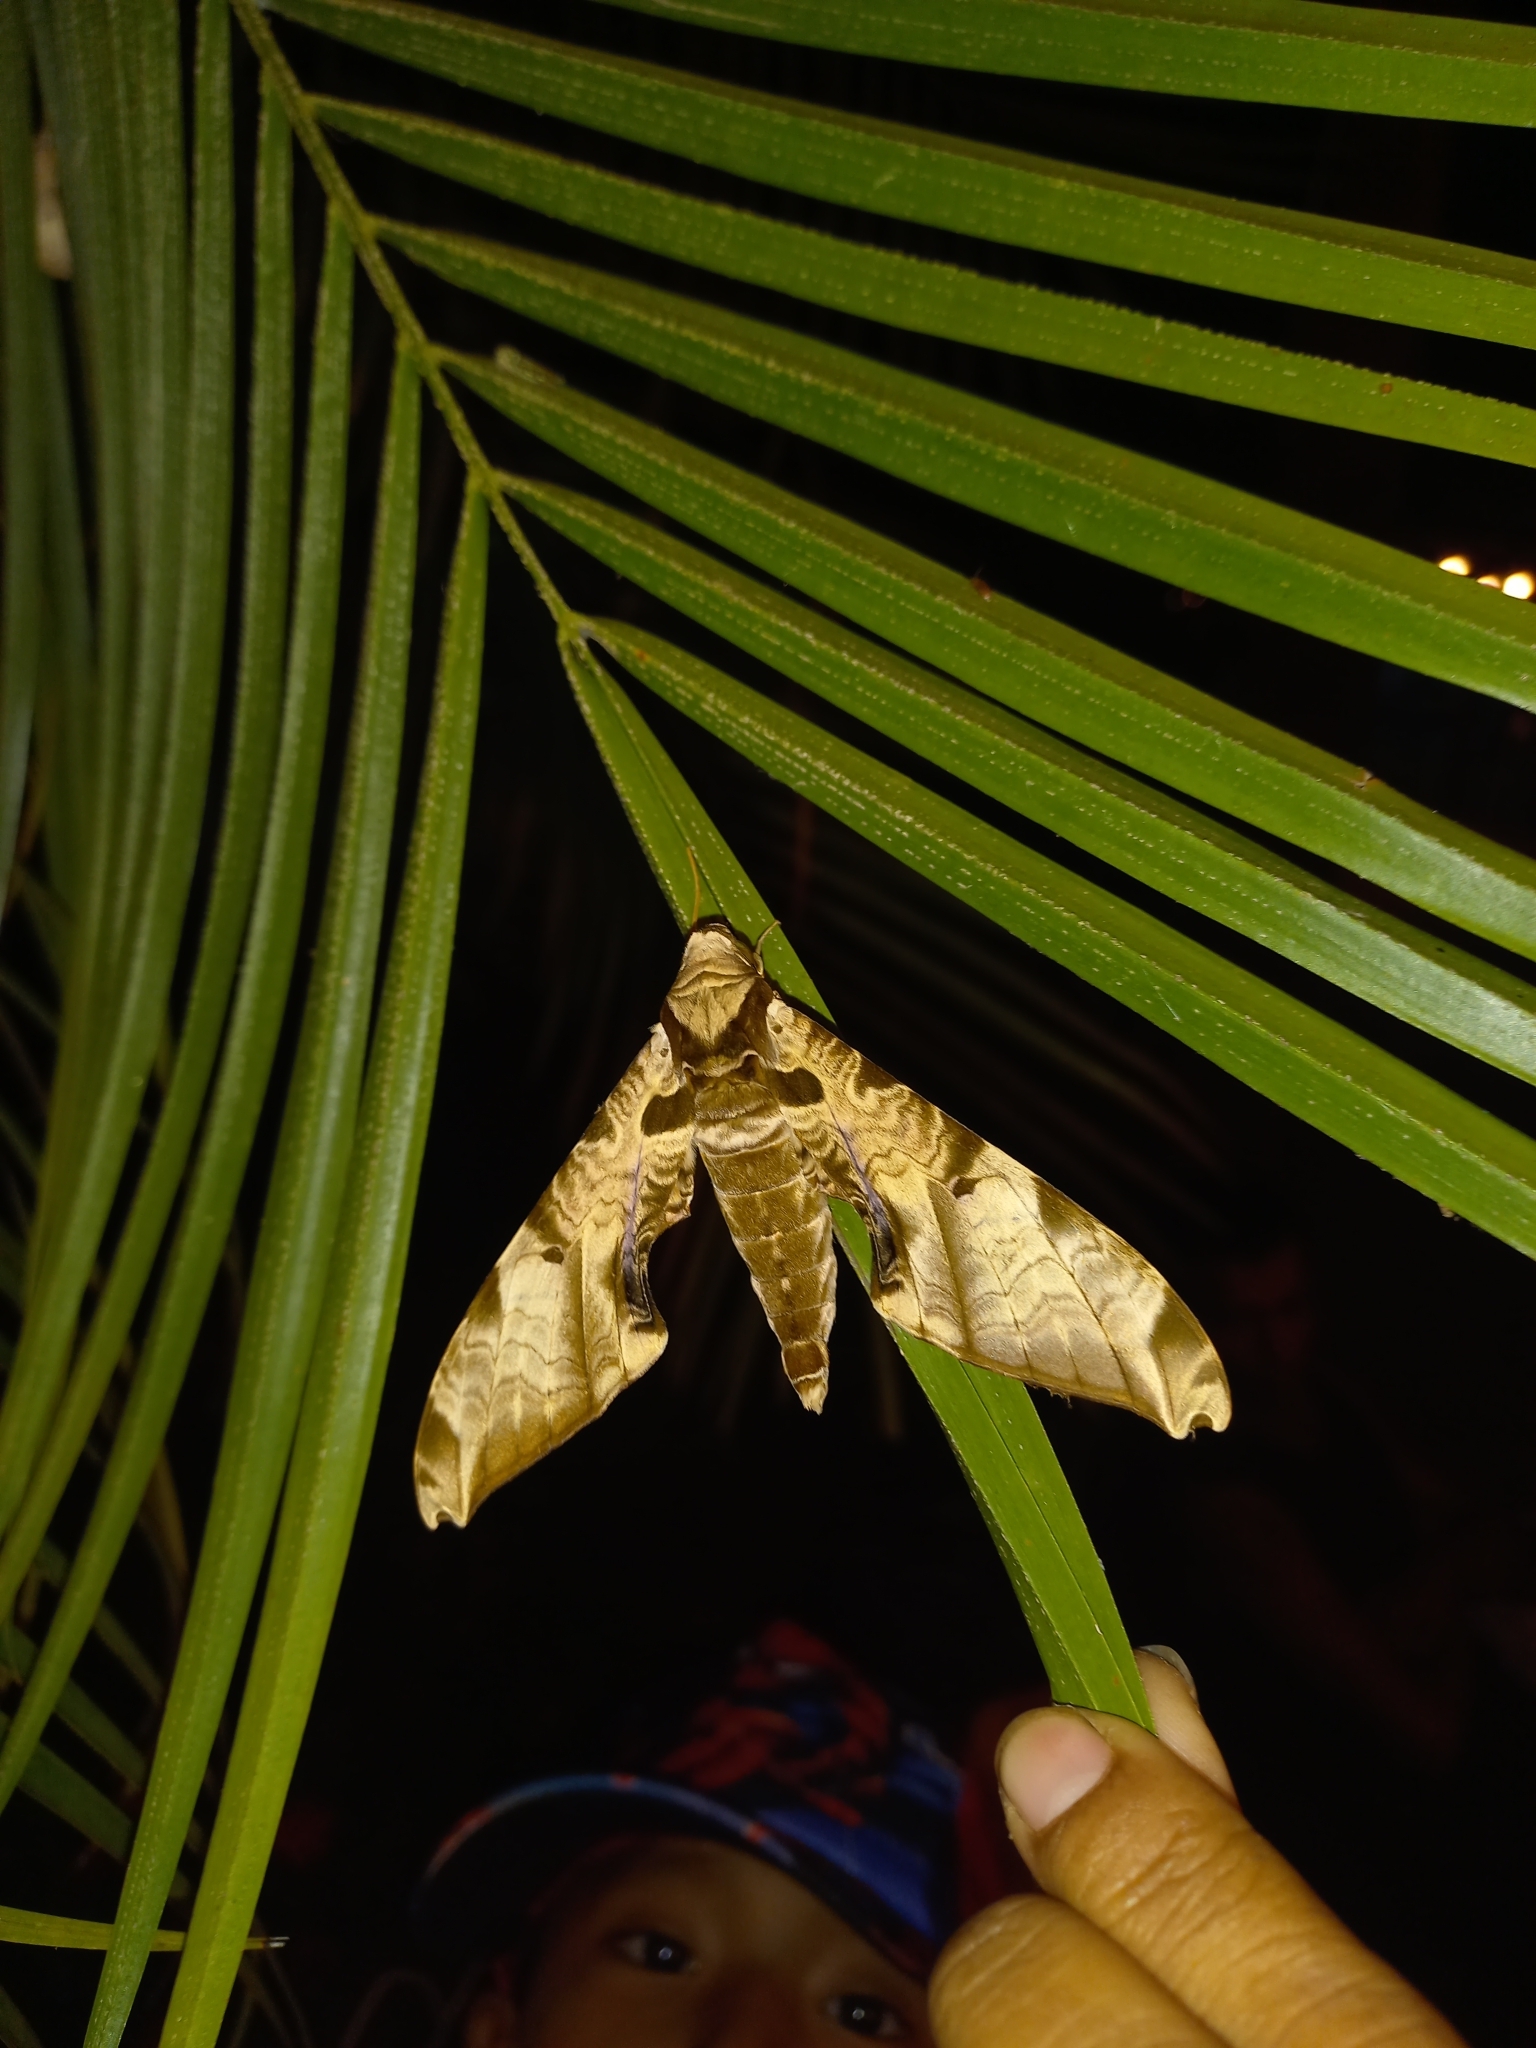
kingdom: Animalia
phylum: Arthropoda
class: Insecta
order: Lepidoptera
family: Sphingidae
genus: Protambulyx
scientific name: Protambulyx eurycles
